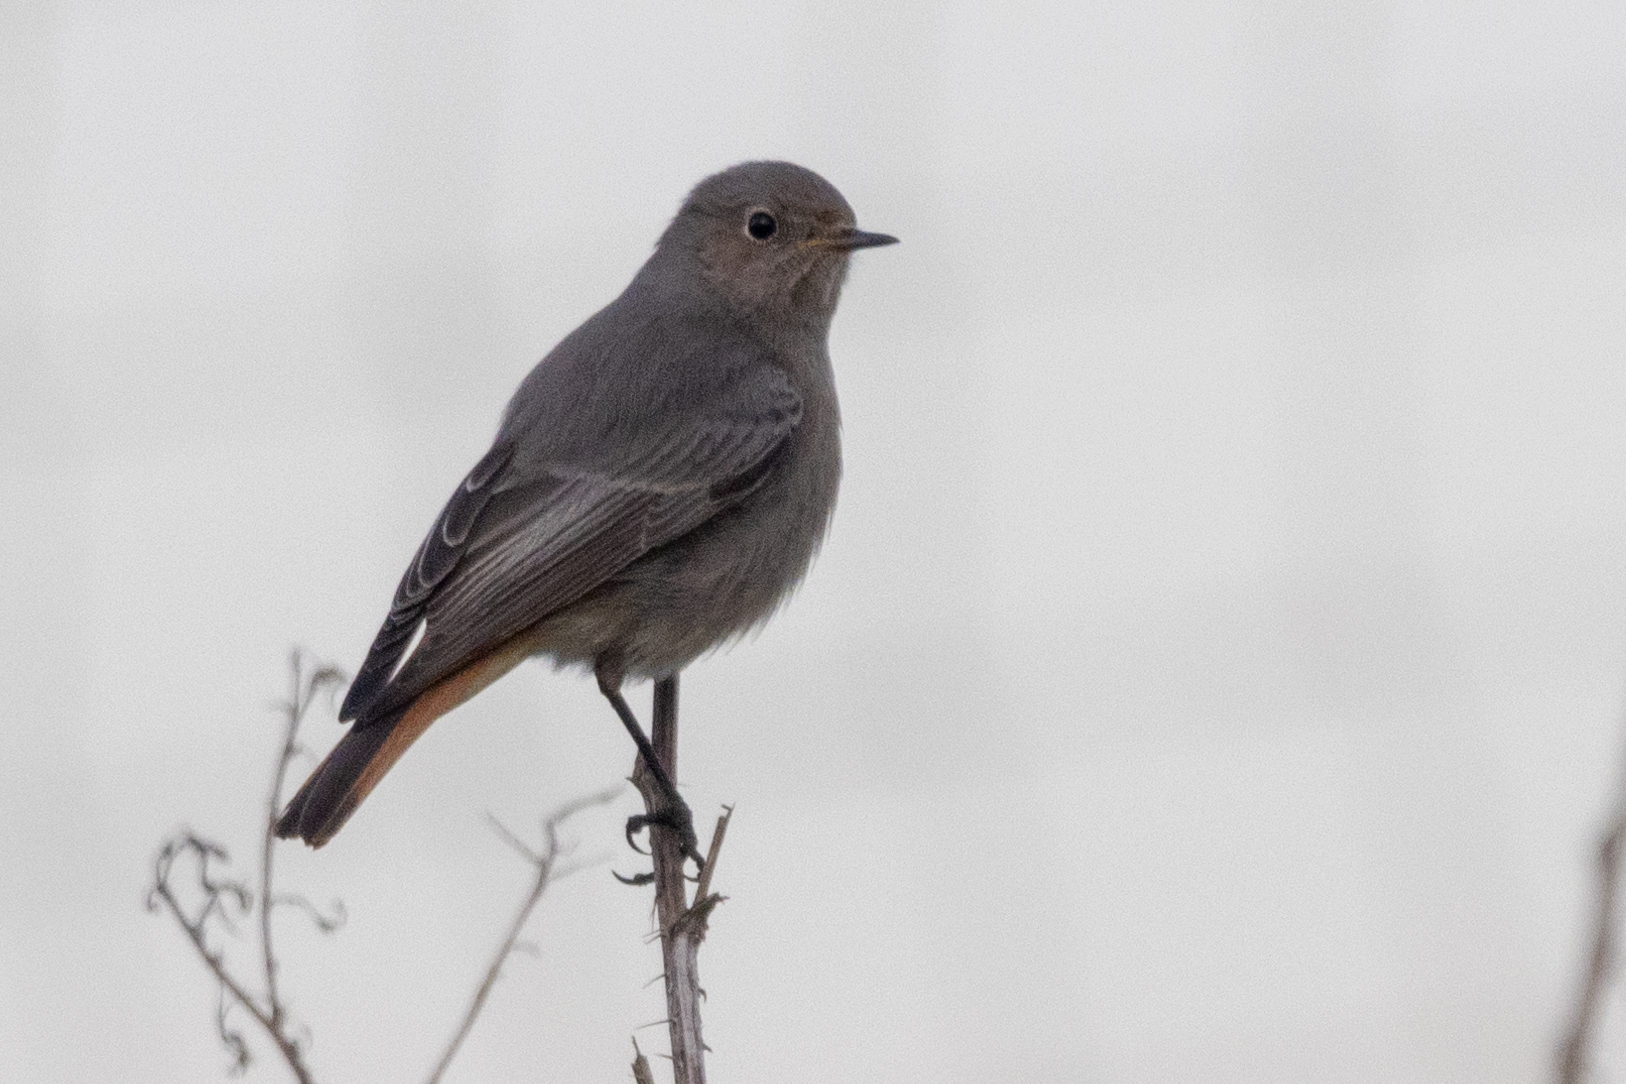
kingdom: Animalia
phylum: Chordata
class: Aves
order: Passeriformes
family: Muscicapidae
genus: Phoenicurus
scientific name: Phoenicurus ochruros
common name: Black redstart
